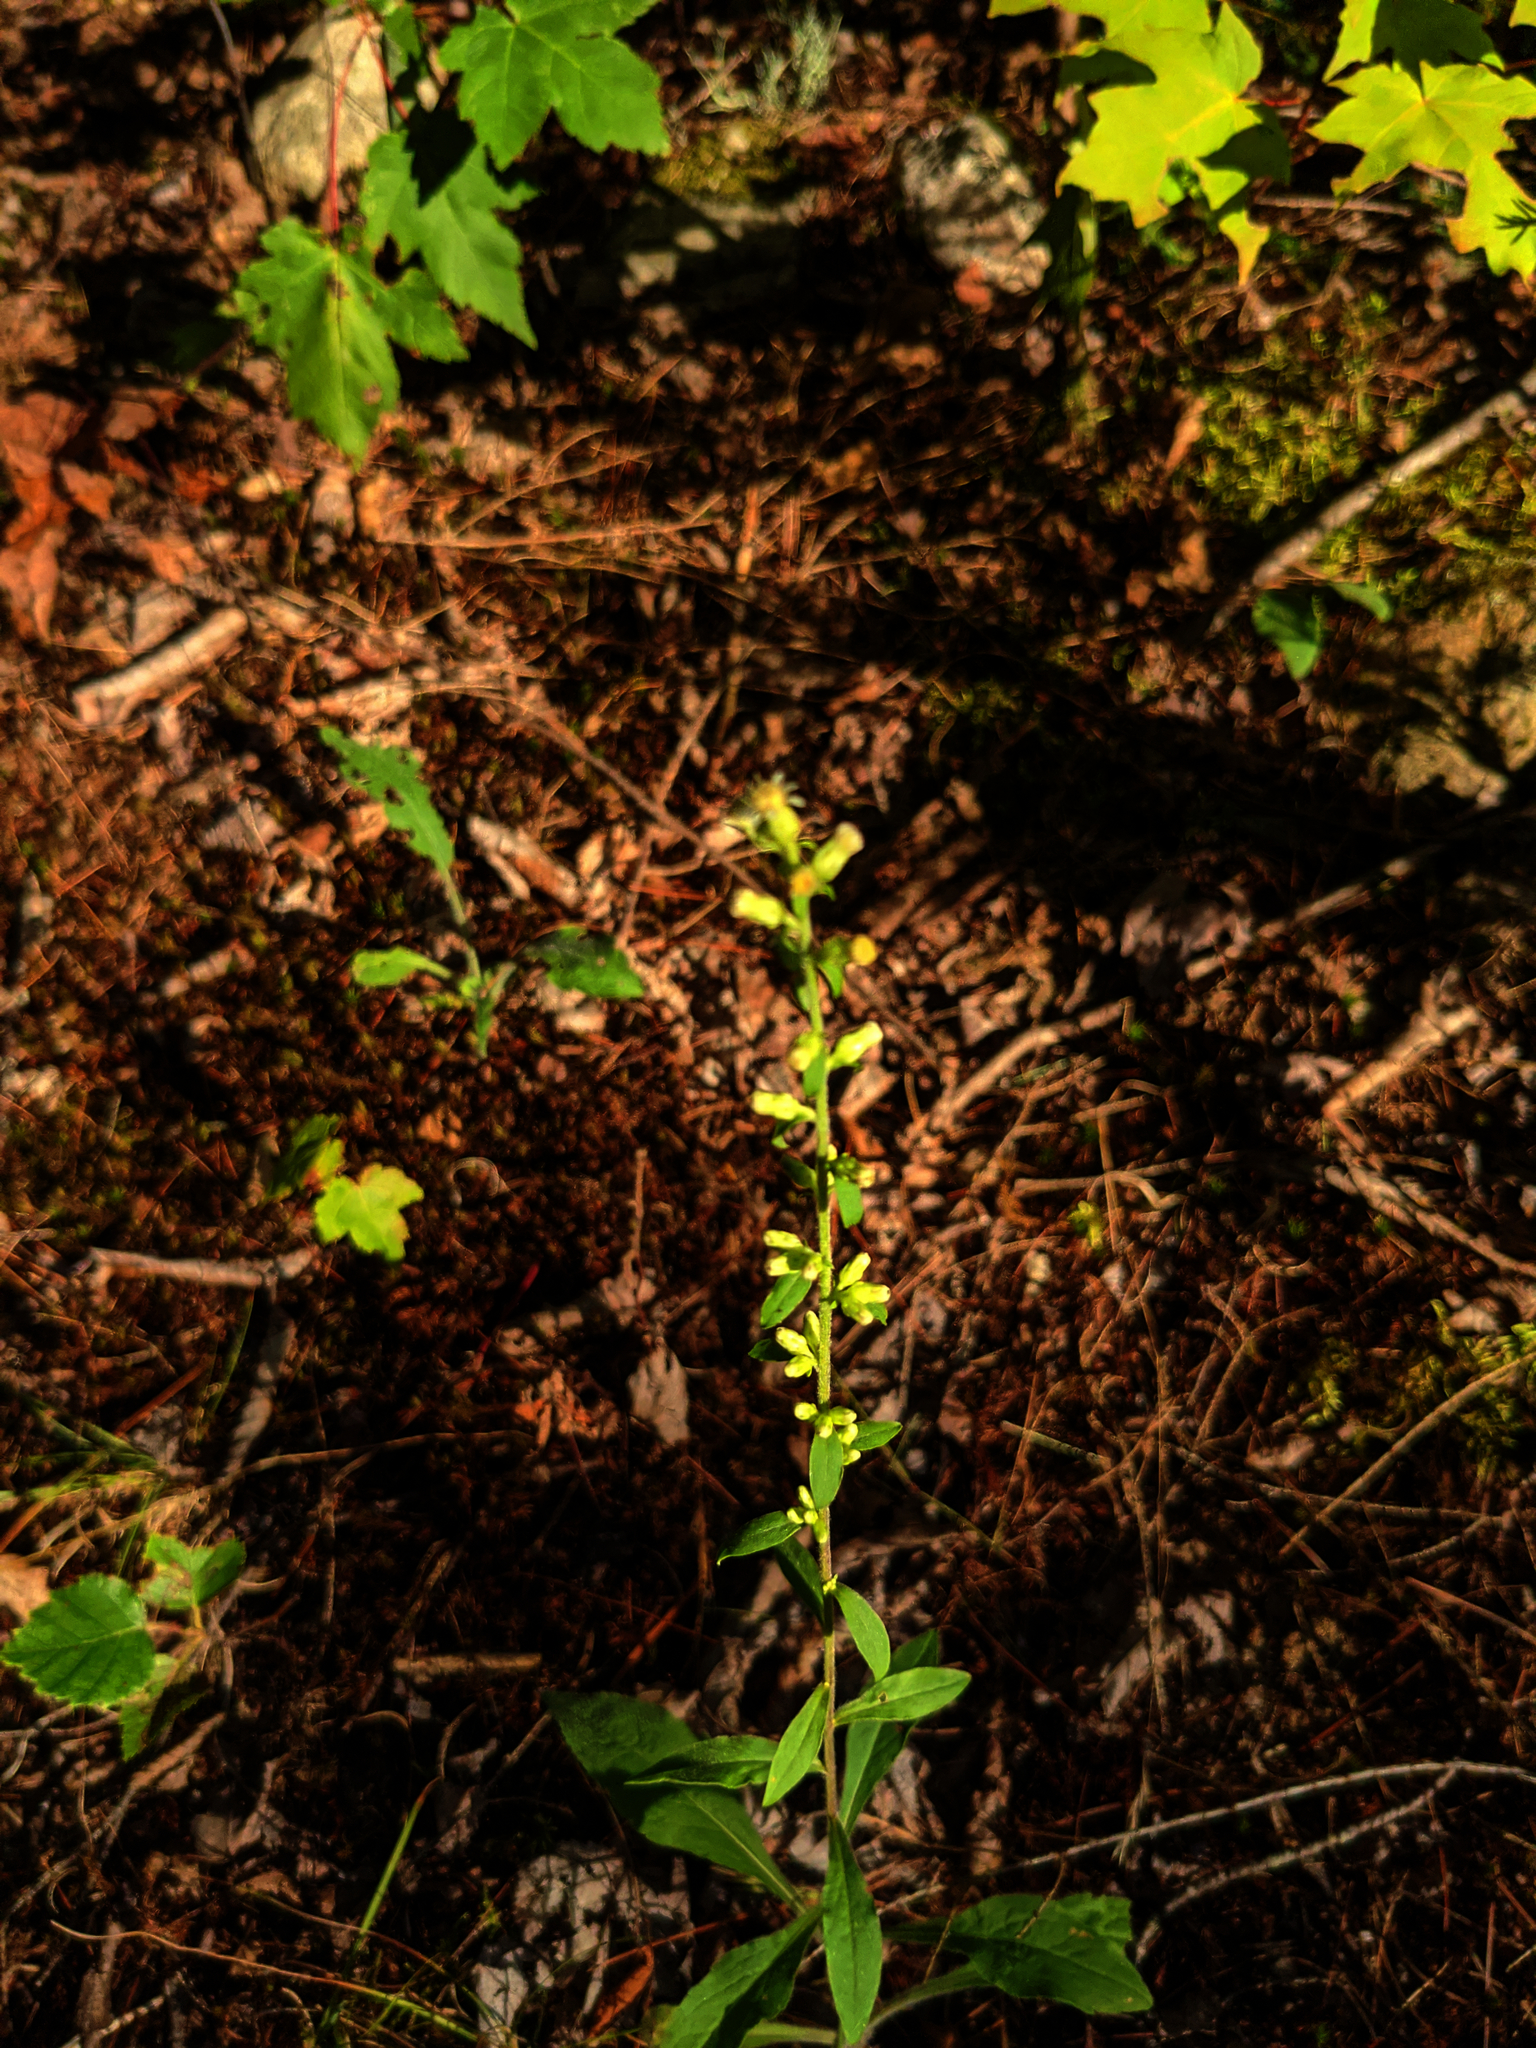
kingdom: Plantae
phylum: Tracheophyta
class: Magnoliopsida
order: Asterales
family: Asteraceae
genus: Solidago
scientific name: Solidago bicolor
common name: Silverrod
